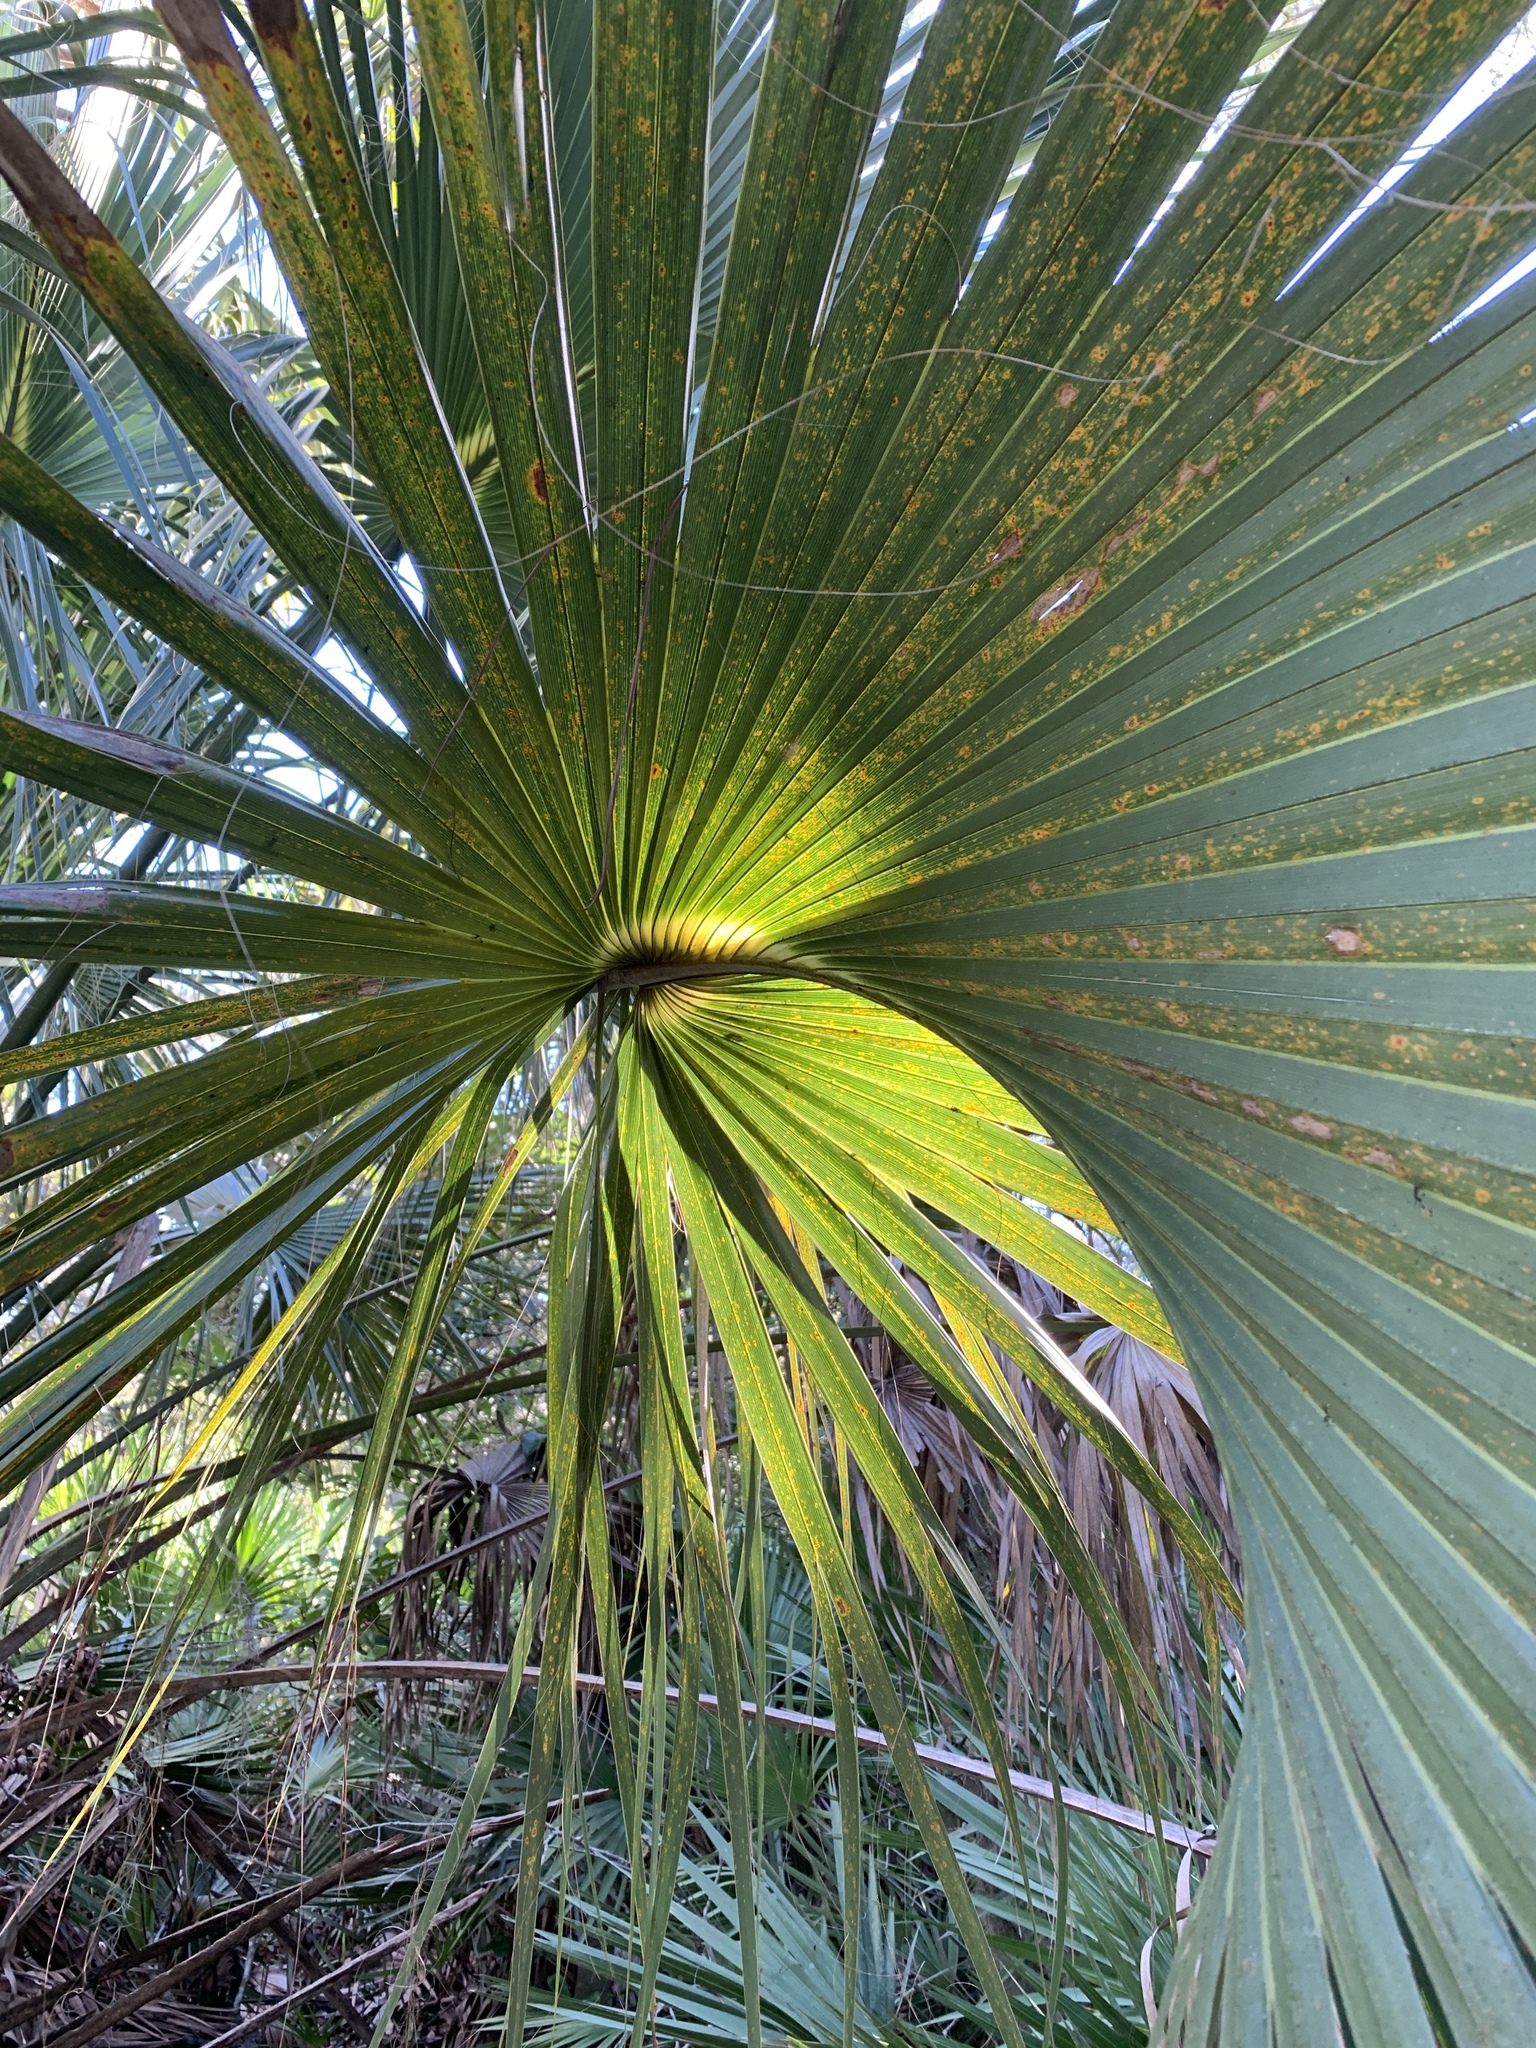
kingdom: Plantae
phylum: Tracheophyta
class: Liliopsida
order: Arecales
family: Arecaceae
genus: Sabal
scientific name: Sabal palmetto
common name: Blue palmetto
